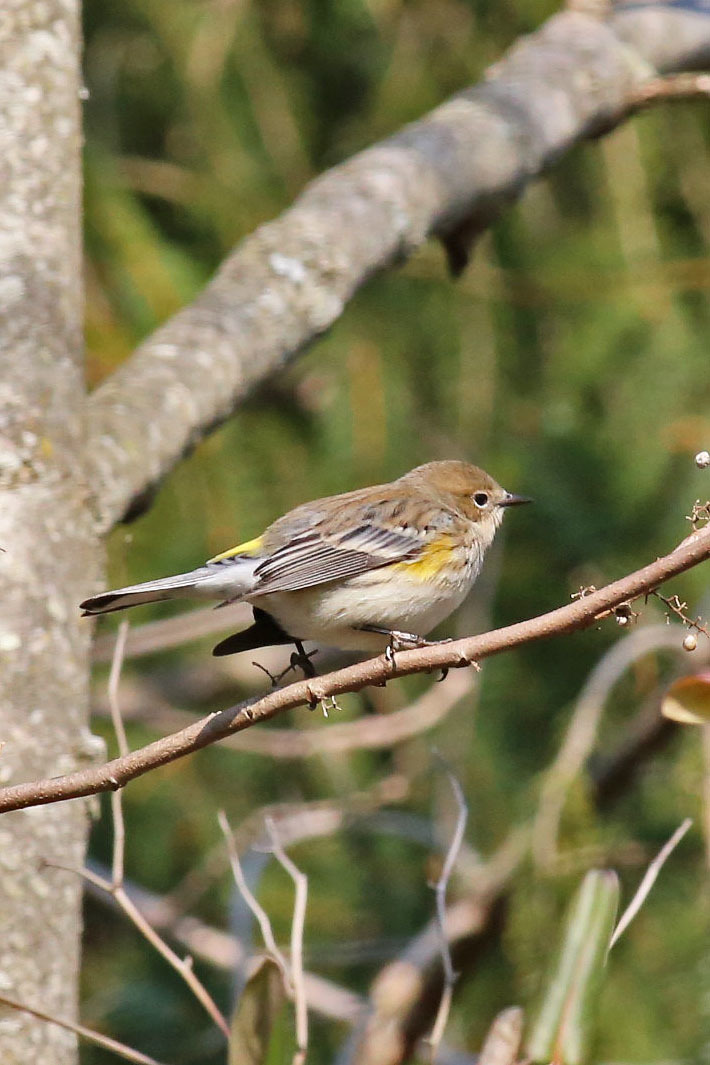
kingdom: Animalia
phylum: Chordata
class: Aves
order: Passeriformes
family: Parulidae
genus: Setophaga
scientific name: Setophaga coronata
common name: Myrtle warbler
